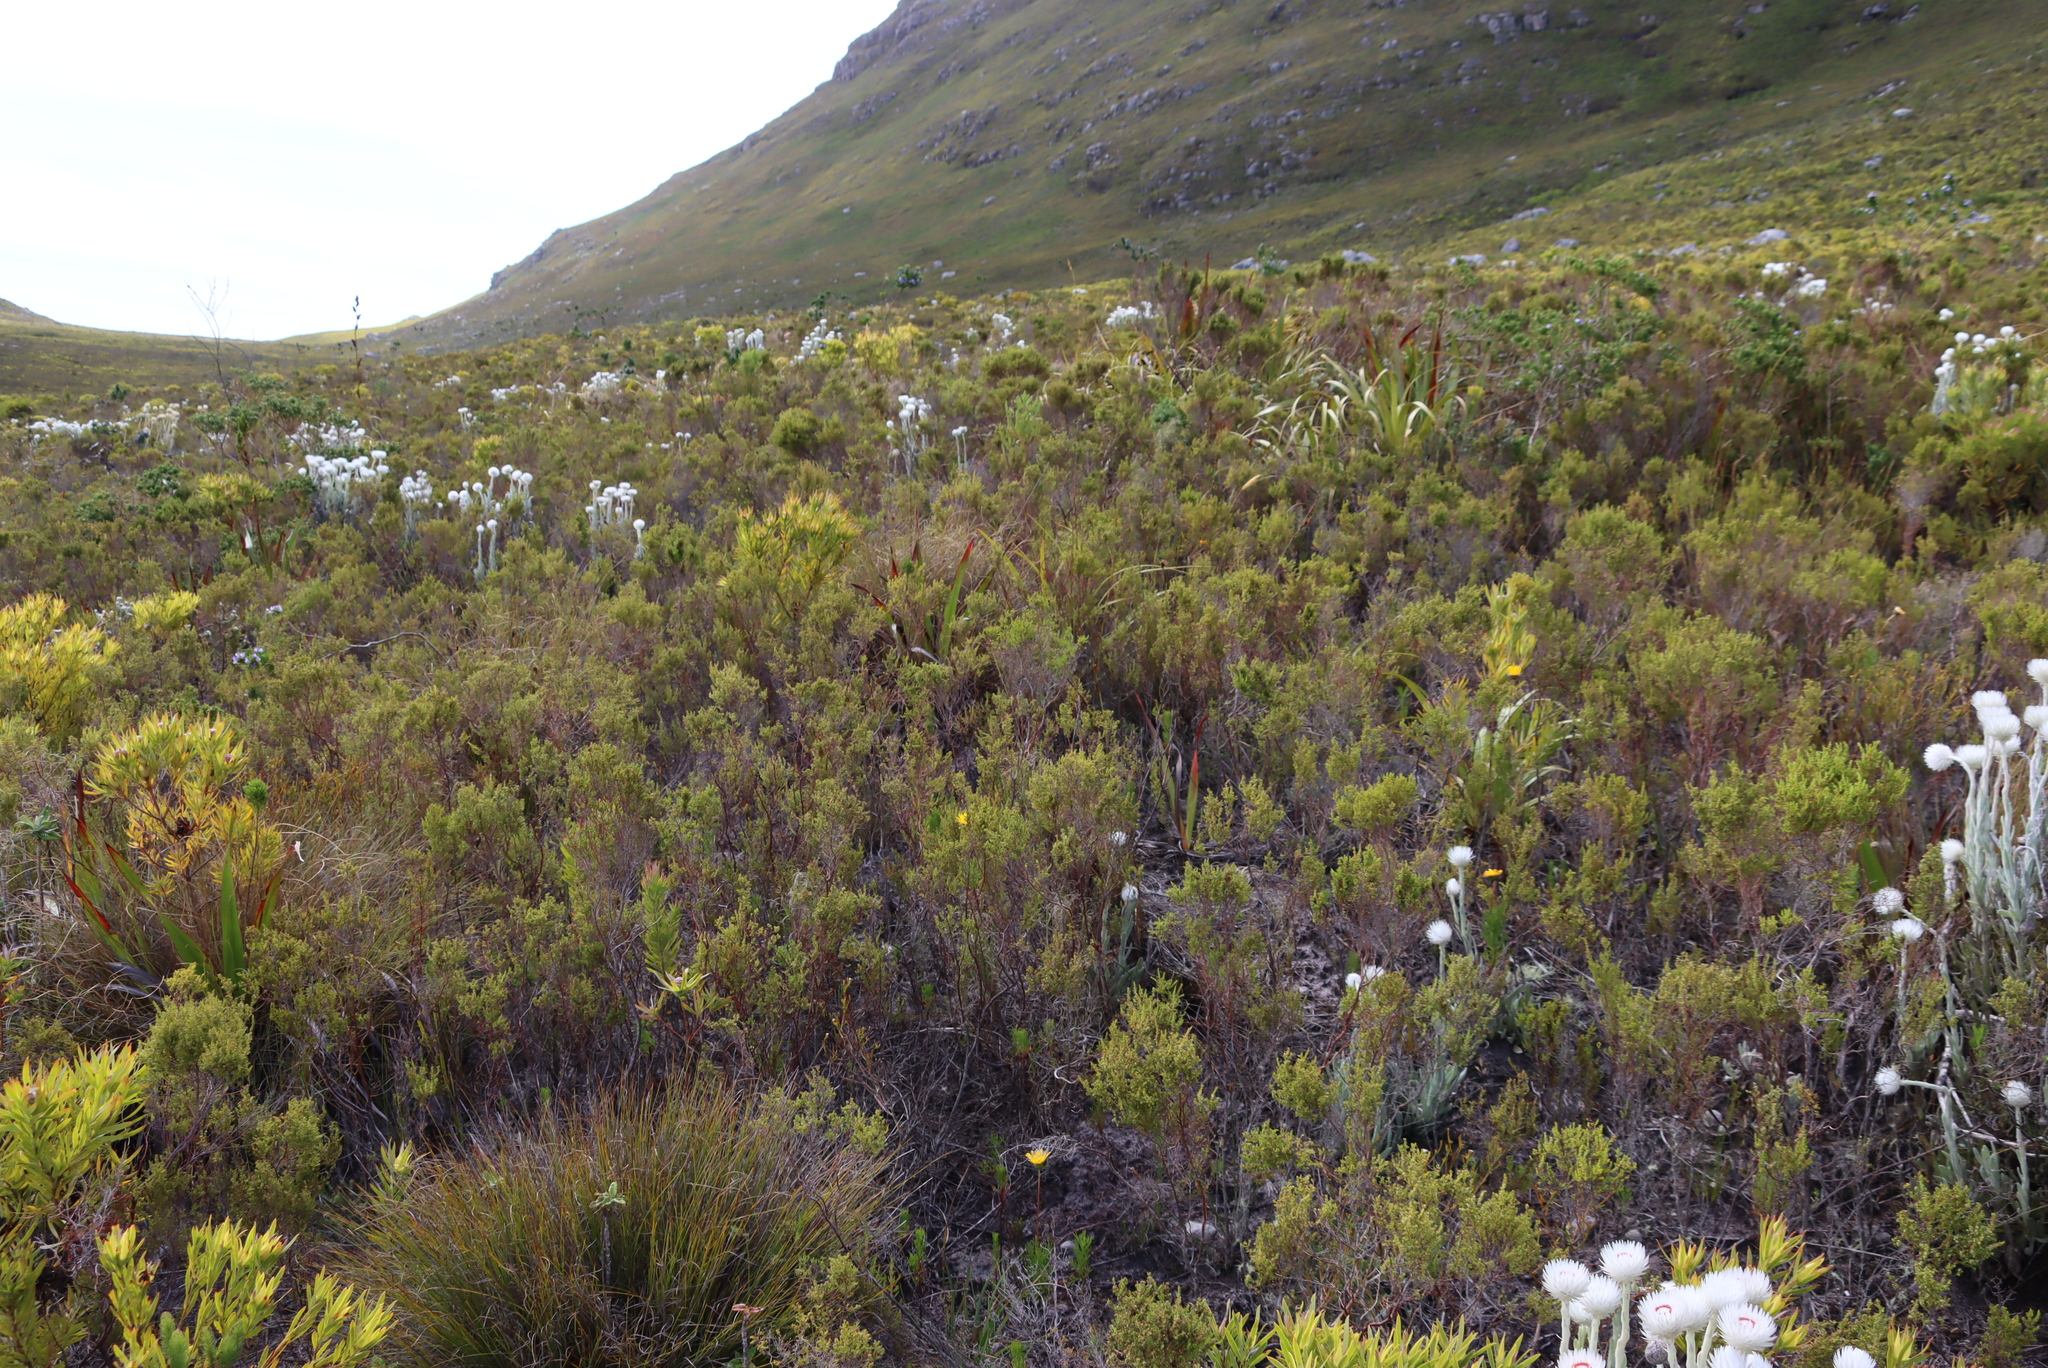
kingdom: Plantae
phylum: Tracheophyta
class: Magnoliopsida
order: Ericales
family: Ericaceae
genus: Erica
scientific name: Erica muscosa
